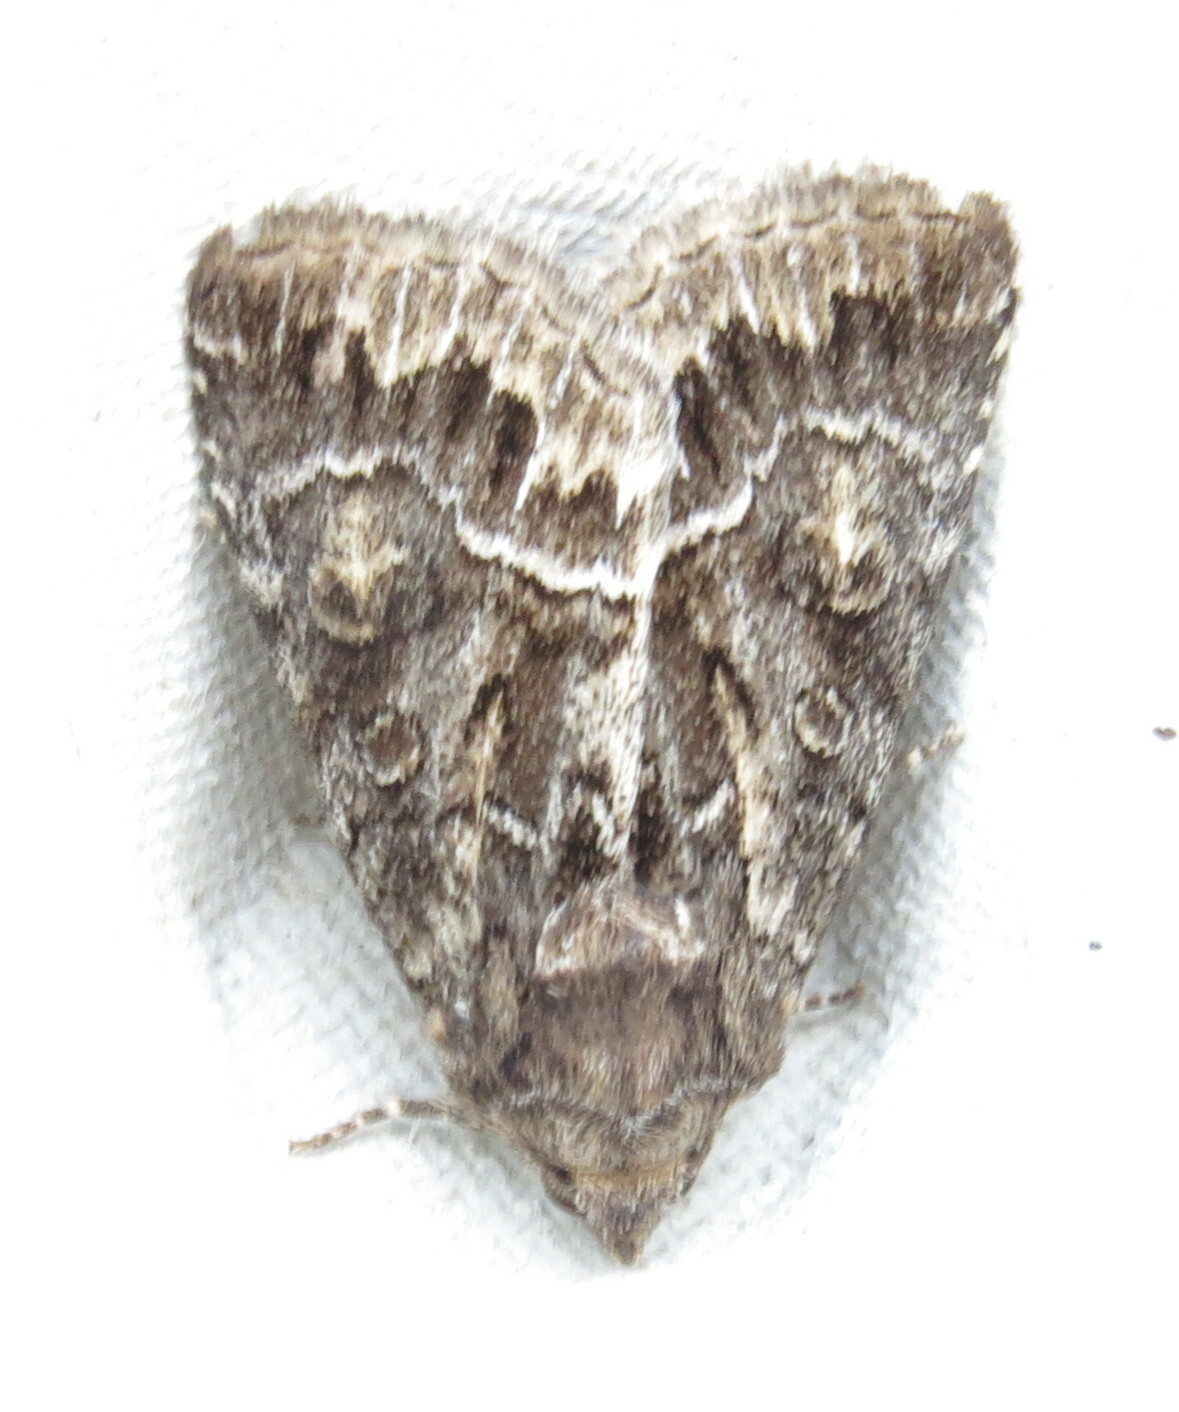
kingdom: Animalia
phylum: Arthropoda
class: Insecta
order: Lepidoptera
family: Noctuidae
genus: Thalpophila
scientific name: Thalpophila matura
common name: Straw underwing
